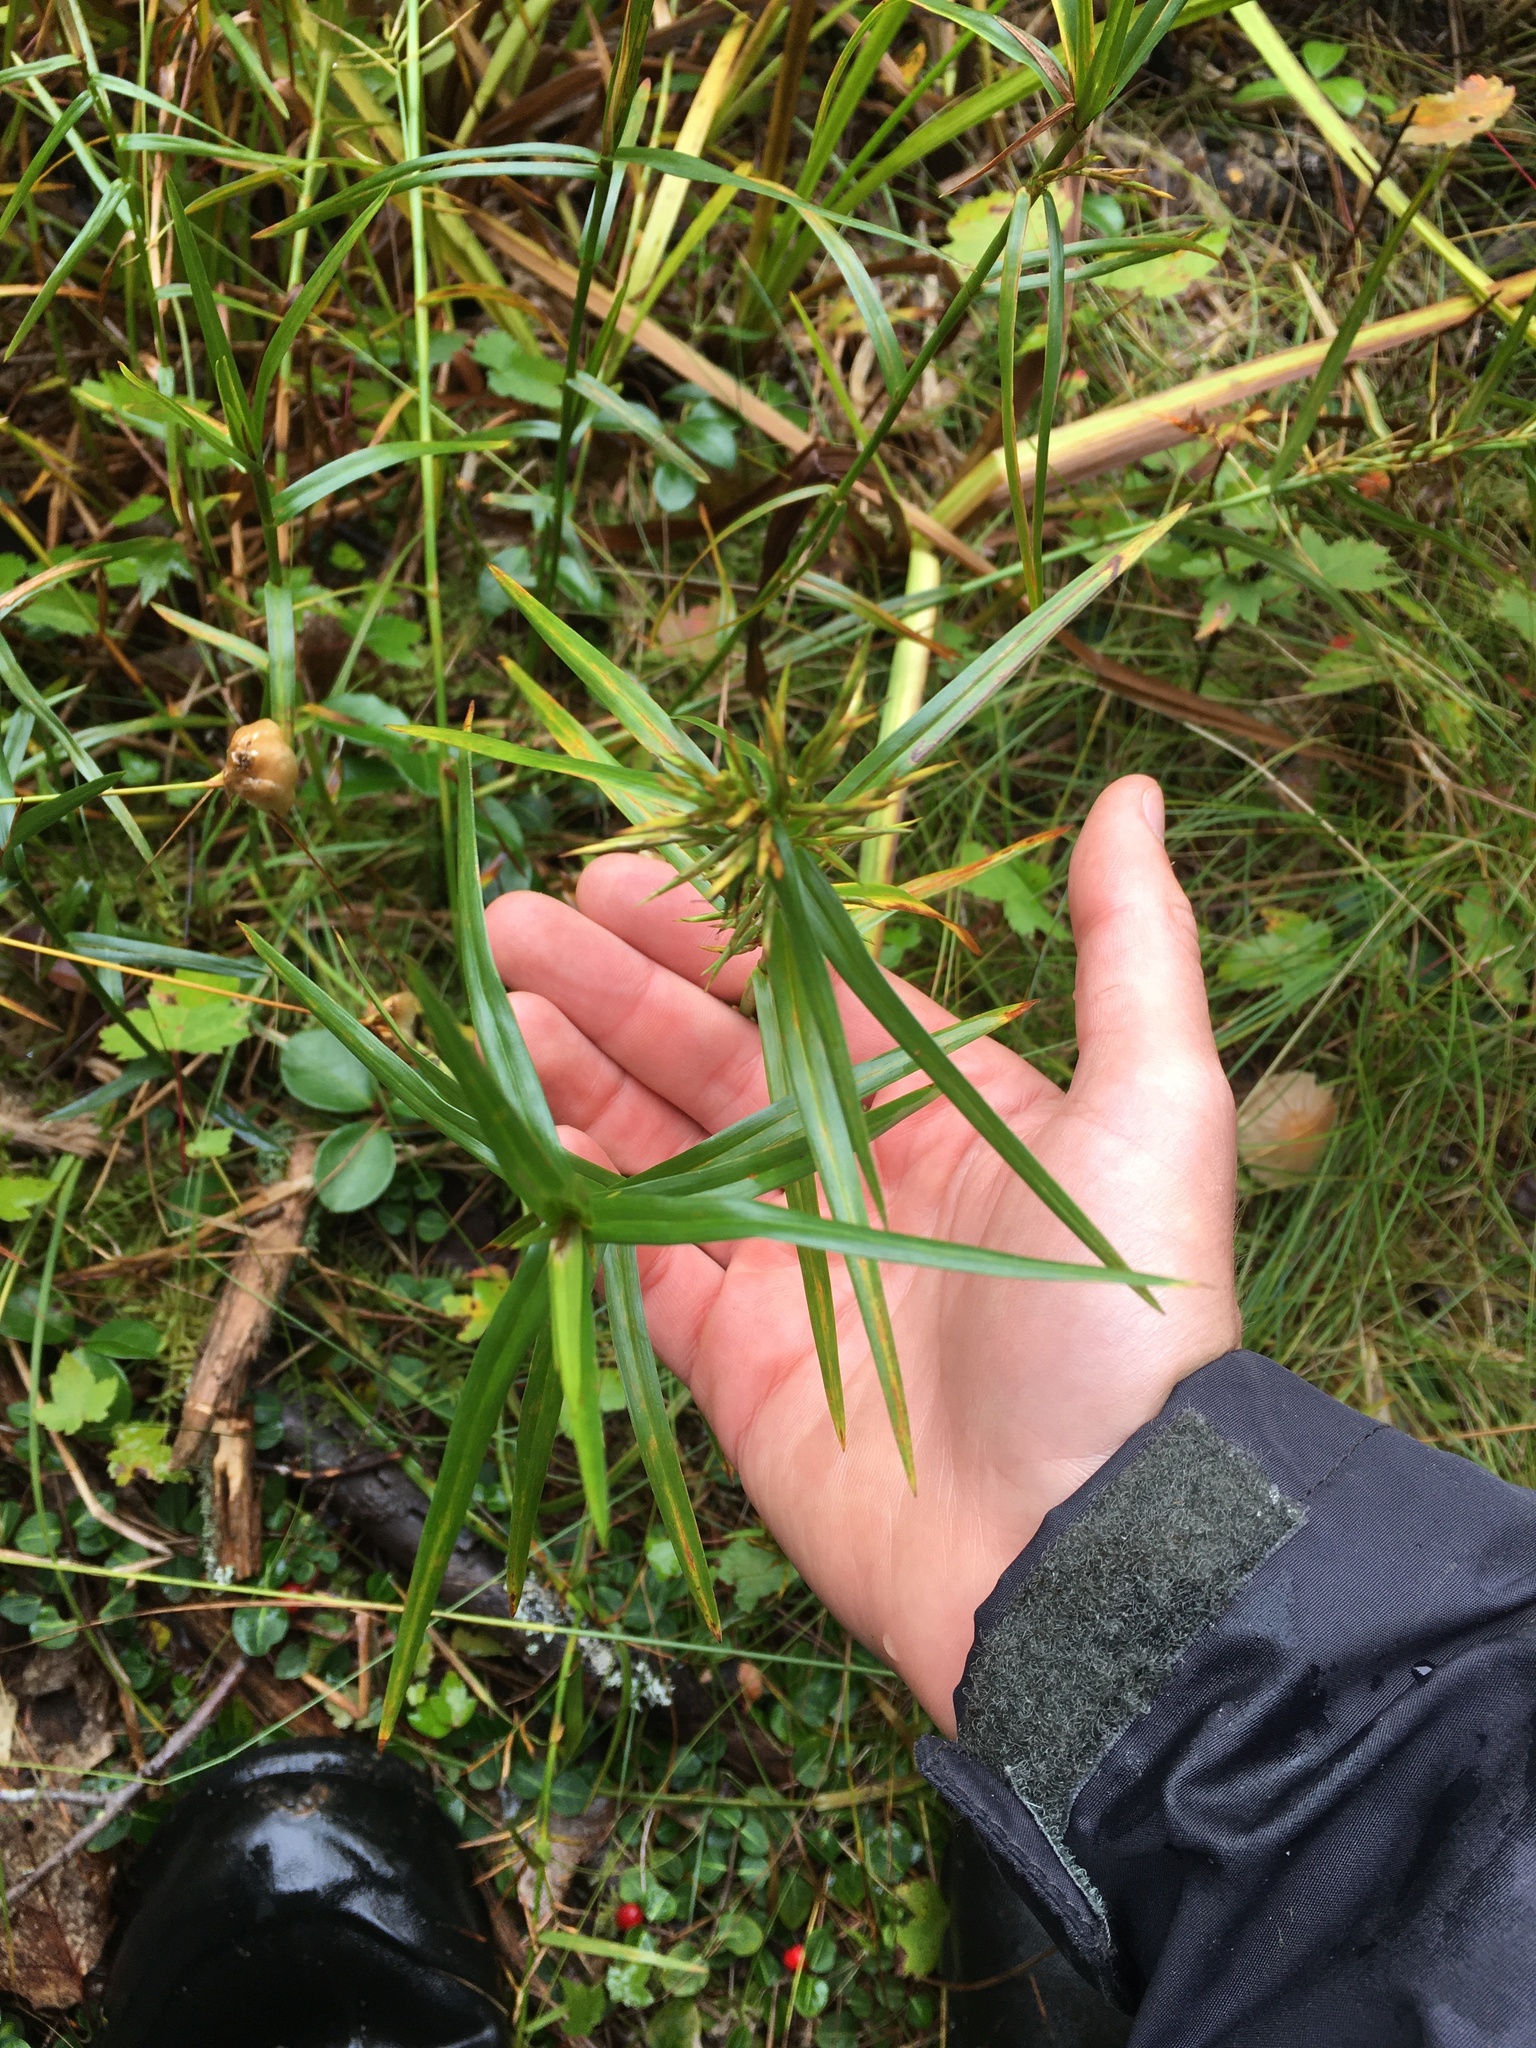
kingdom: Plantae
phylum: Tracheophyta
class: Liliopsida
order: Poales
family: Cyperaceae
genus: Dulichium
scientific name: Dulichium arundinaceum
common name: Three-way sedge
